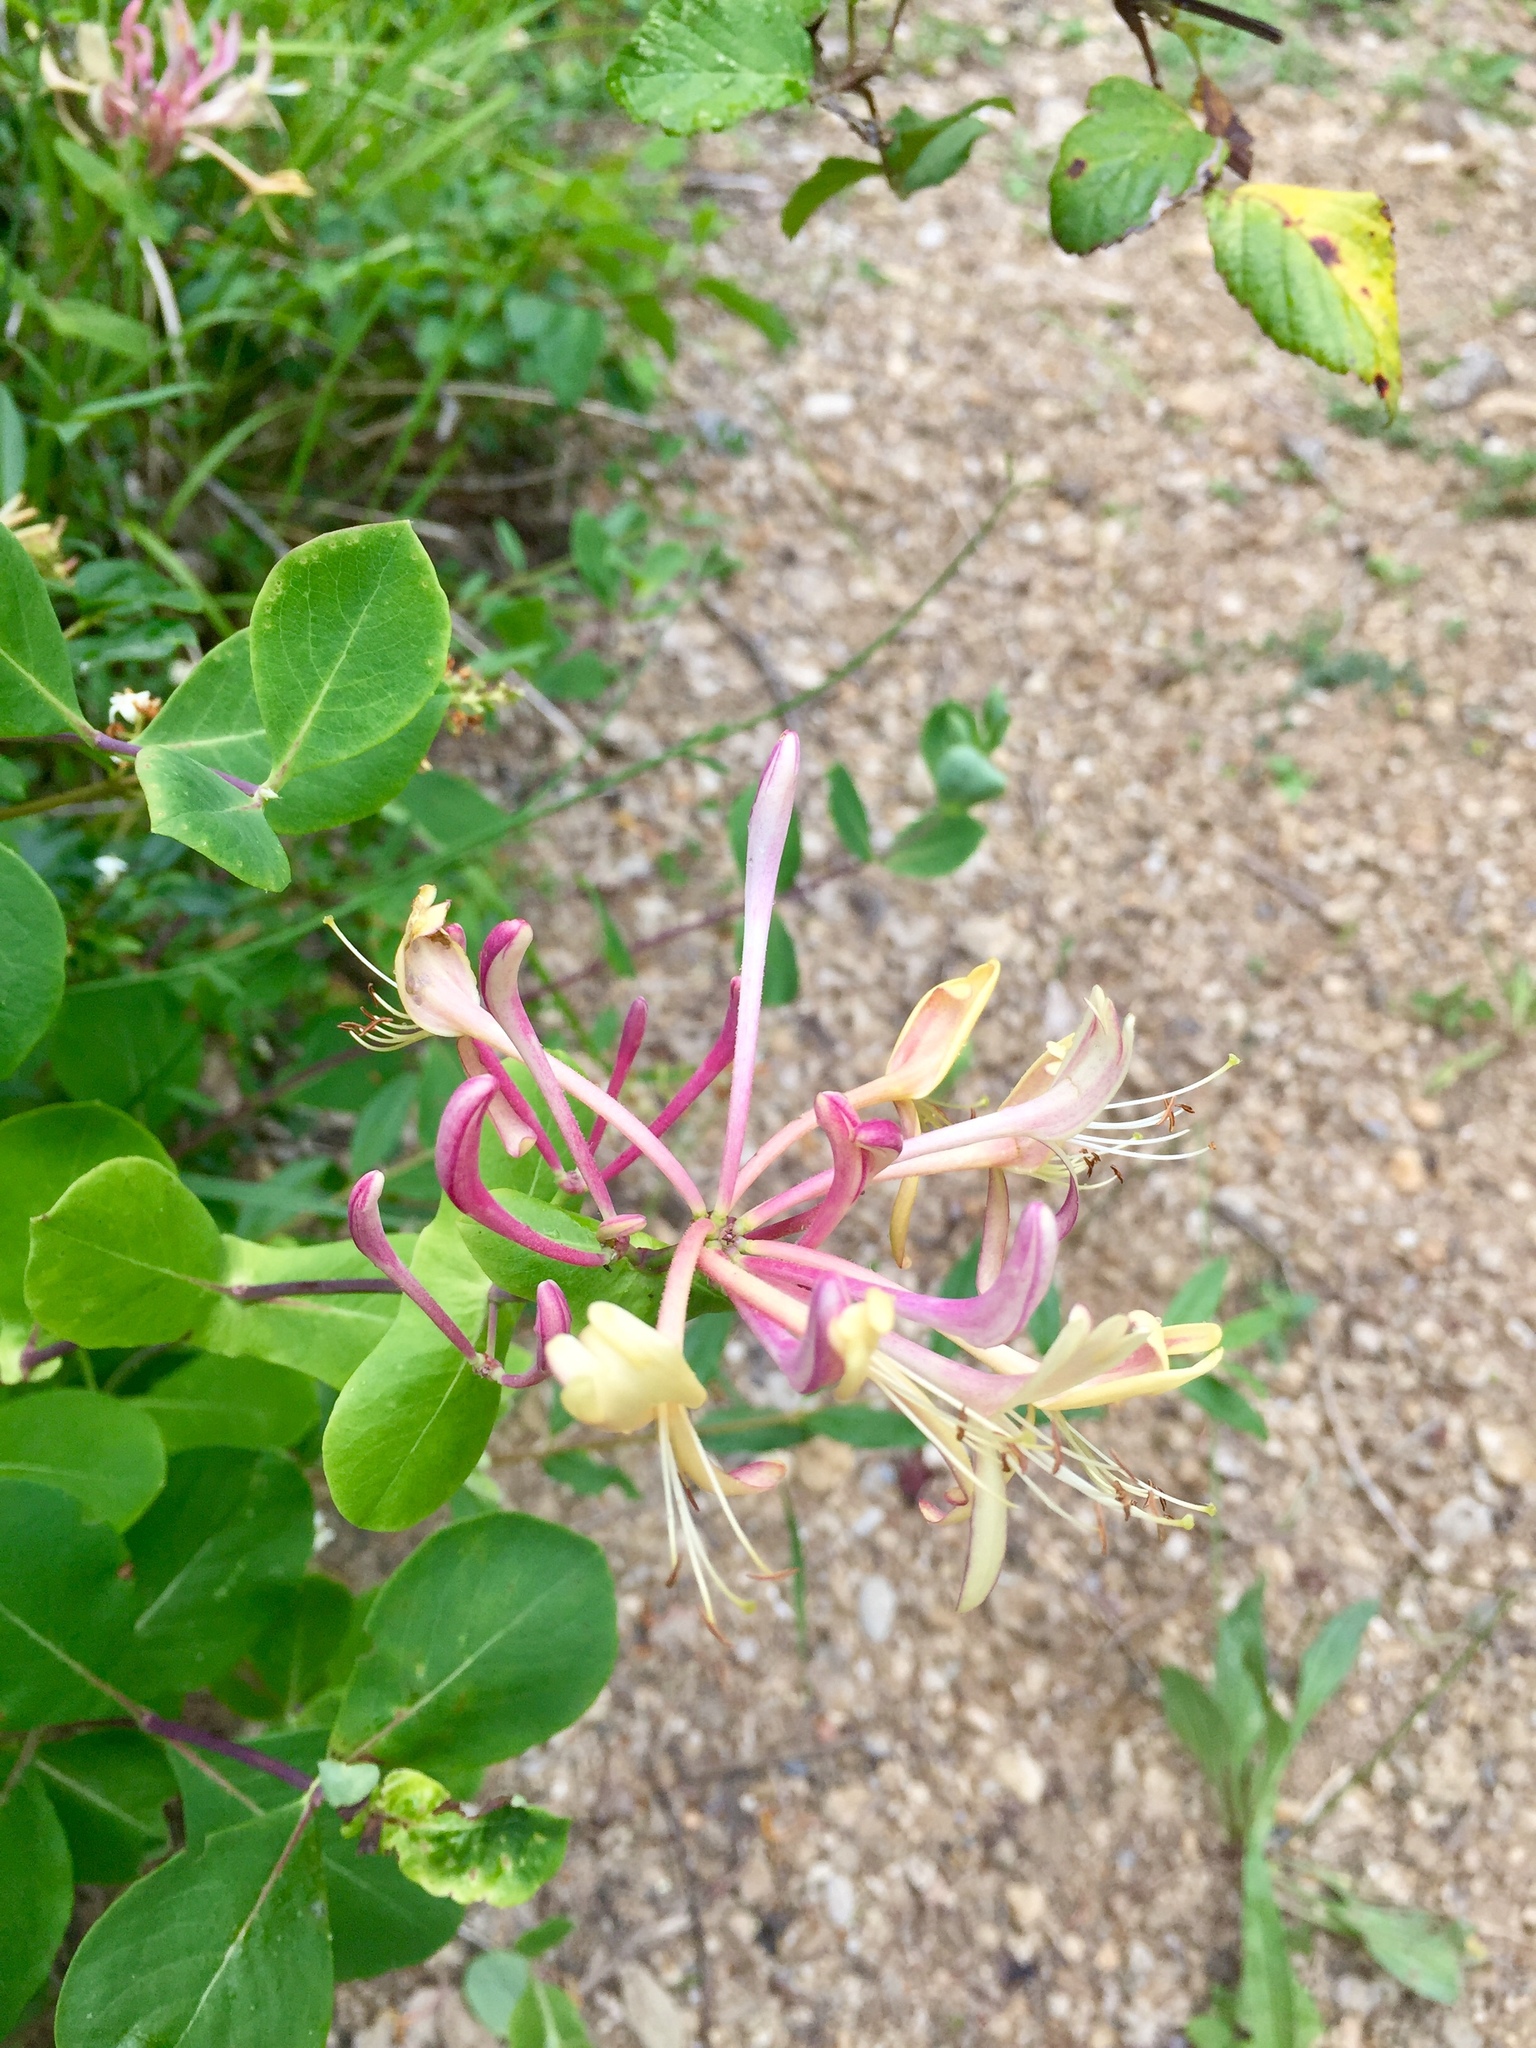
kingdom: Plantae
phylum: Tracheophyta
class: Magnoliopsida
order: Dipsacales
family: Caprifoliaceae
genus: Lonicera
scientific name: Lonicera etrusca
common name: Etruscan honeysuckle
